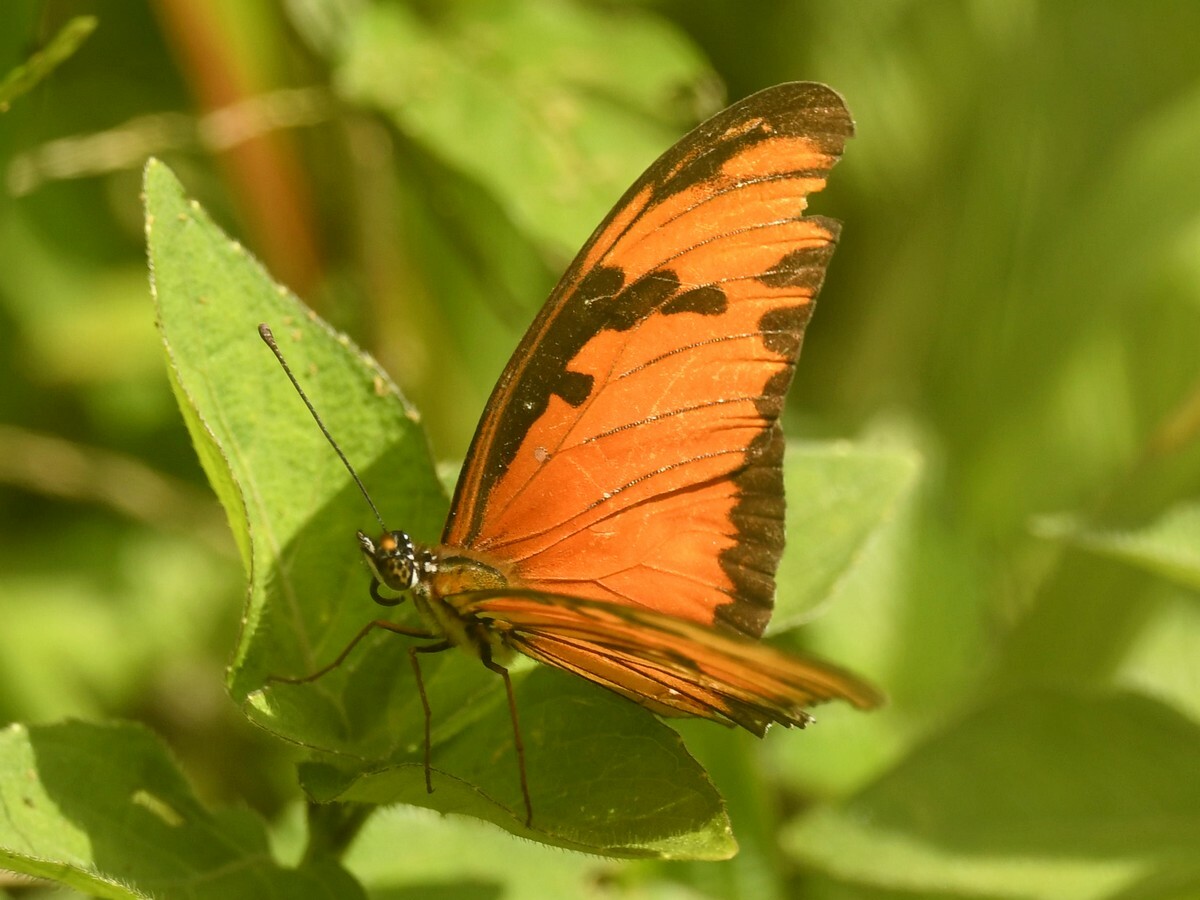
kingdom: Animalia
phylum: Arthropoda
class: Insecta
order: Lepidoptera
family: Nymphalidae
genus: Dione
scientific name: Dione vanillae
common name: Gulf fritillary
